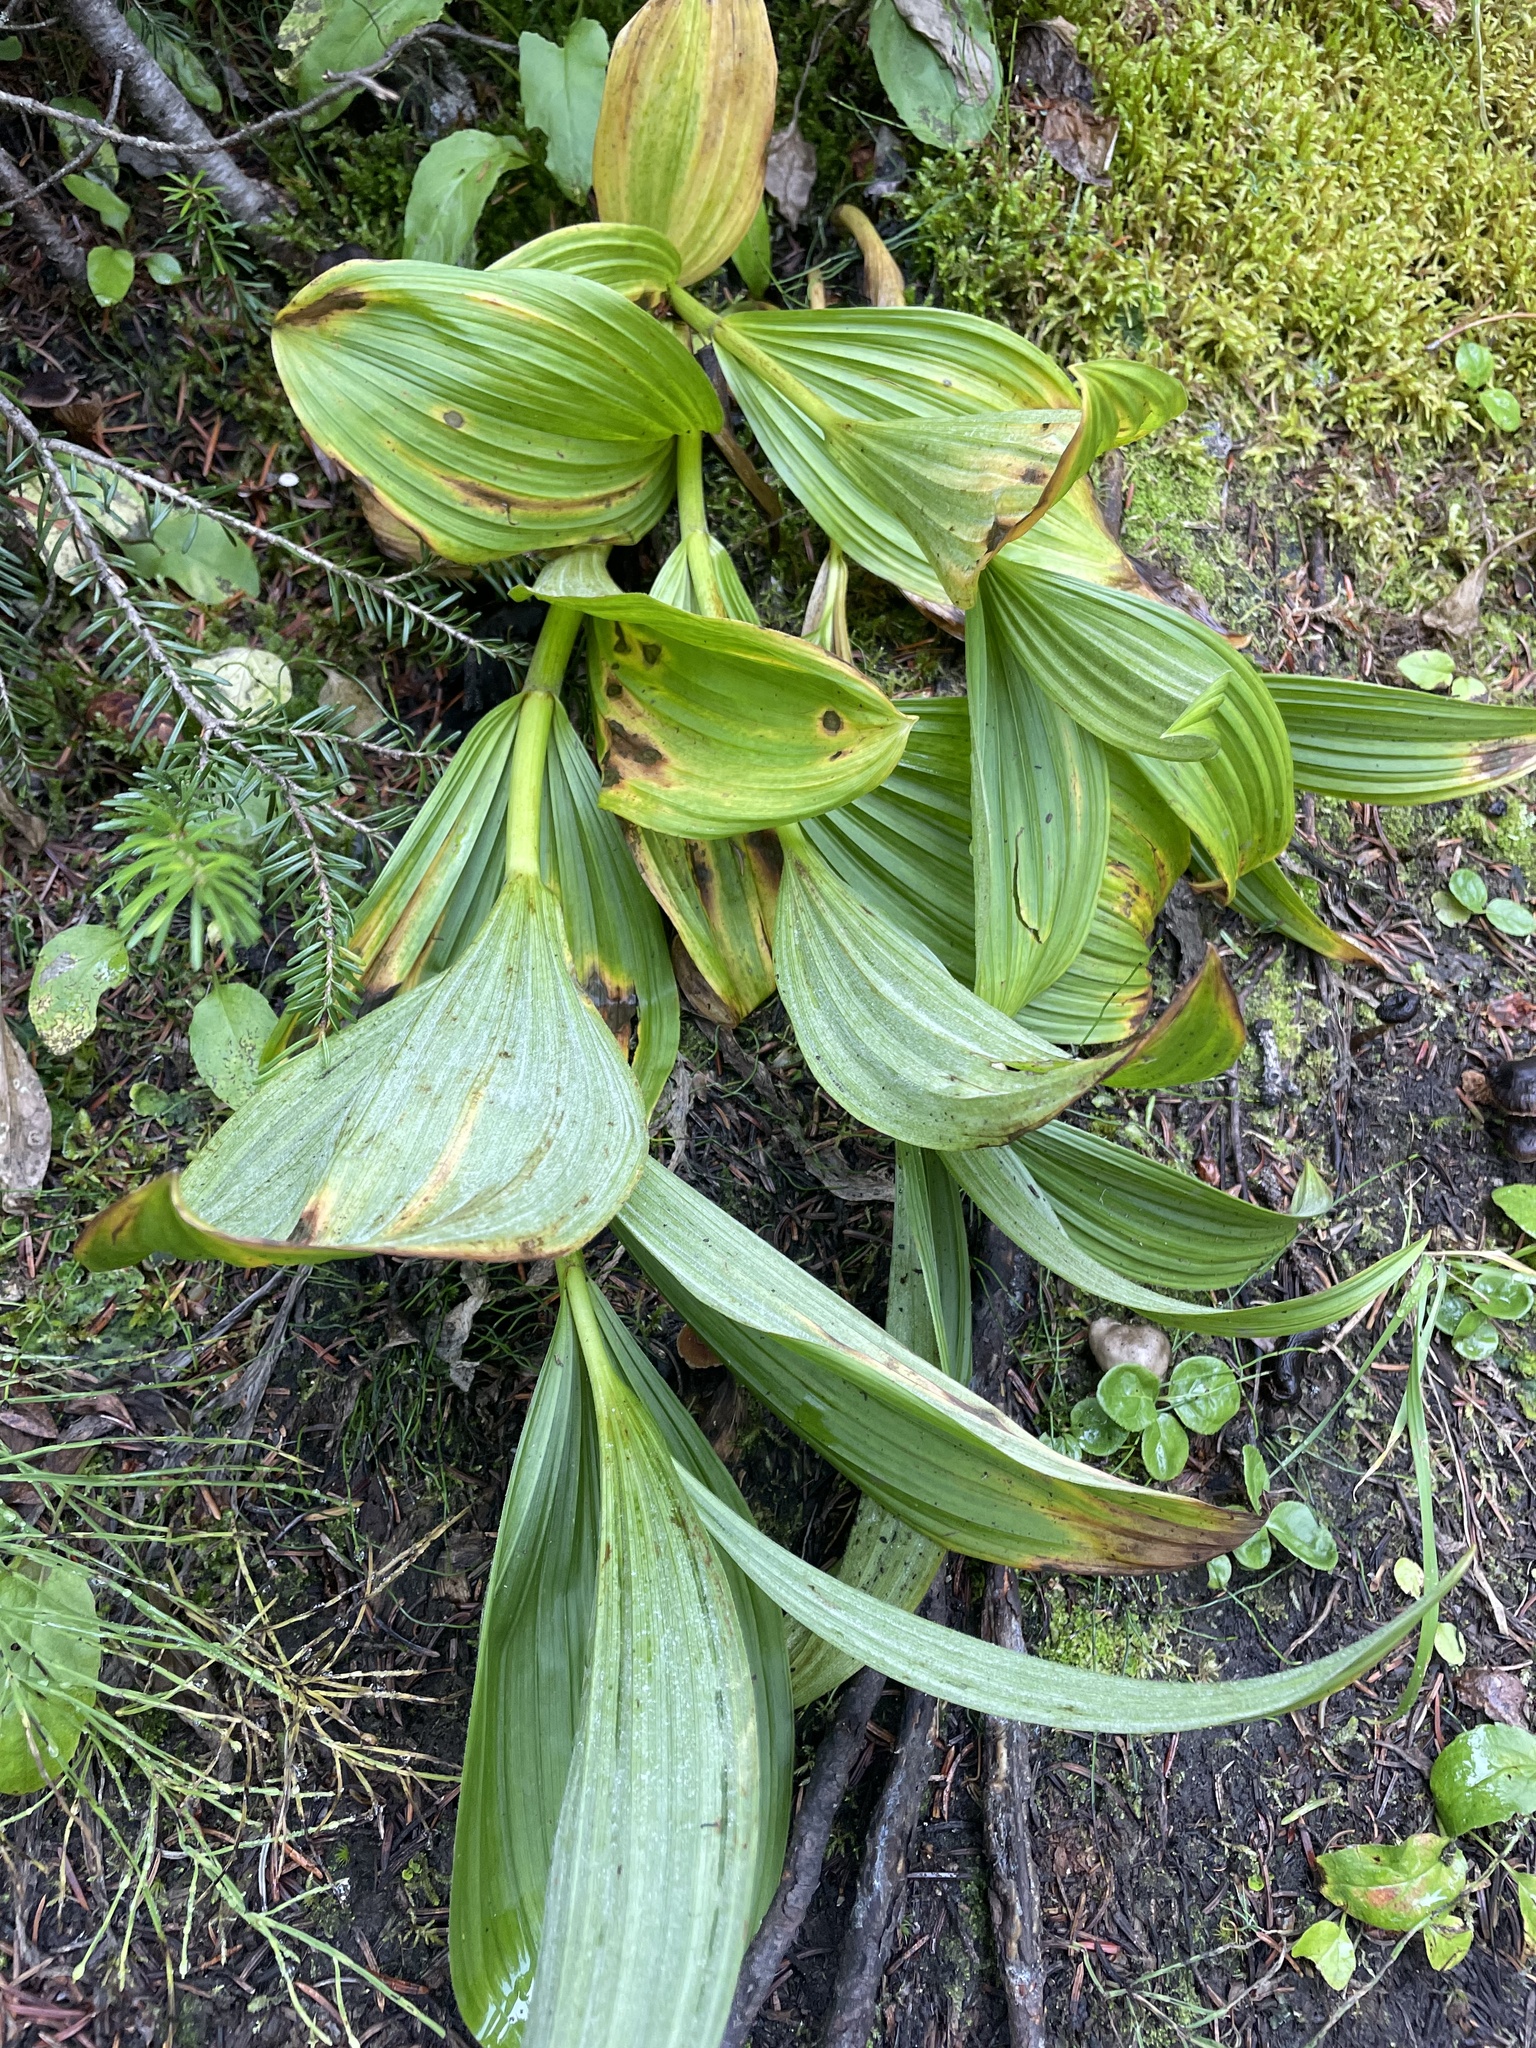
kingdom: Plantae
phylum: Tracheophyta
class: Liliopsida
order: Liliales
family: Melanthiaceae
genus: Veratrum
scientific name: Veratrum viride
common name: American false hellebore
